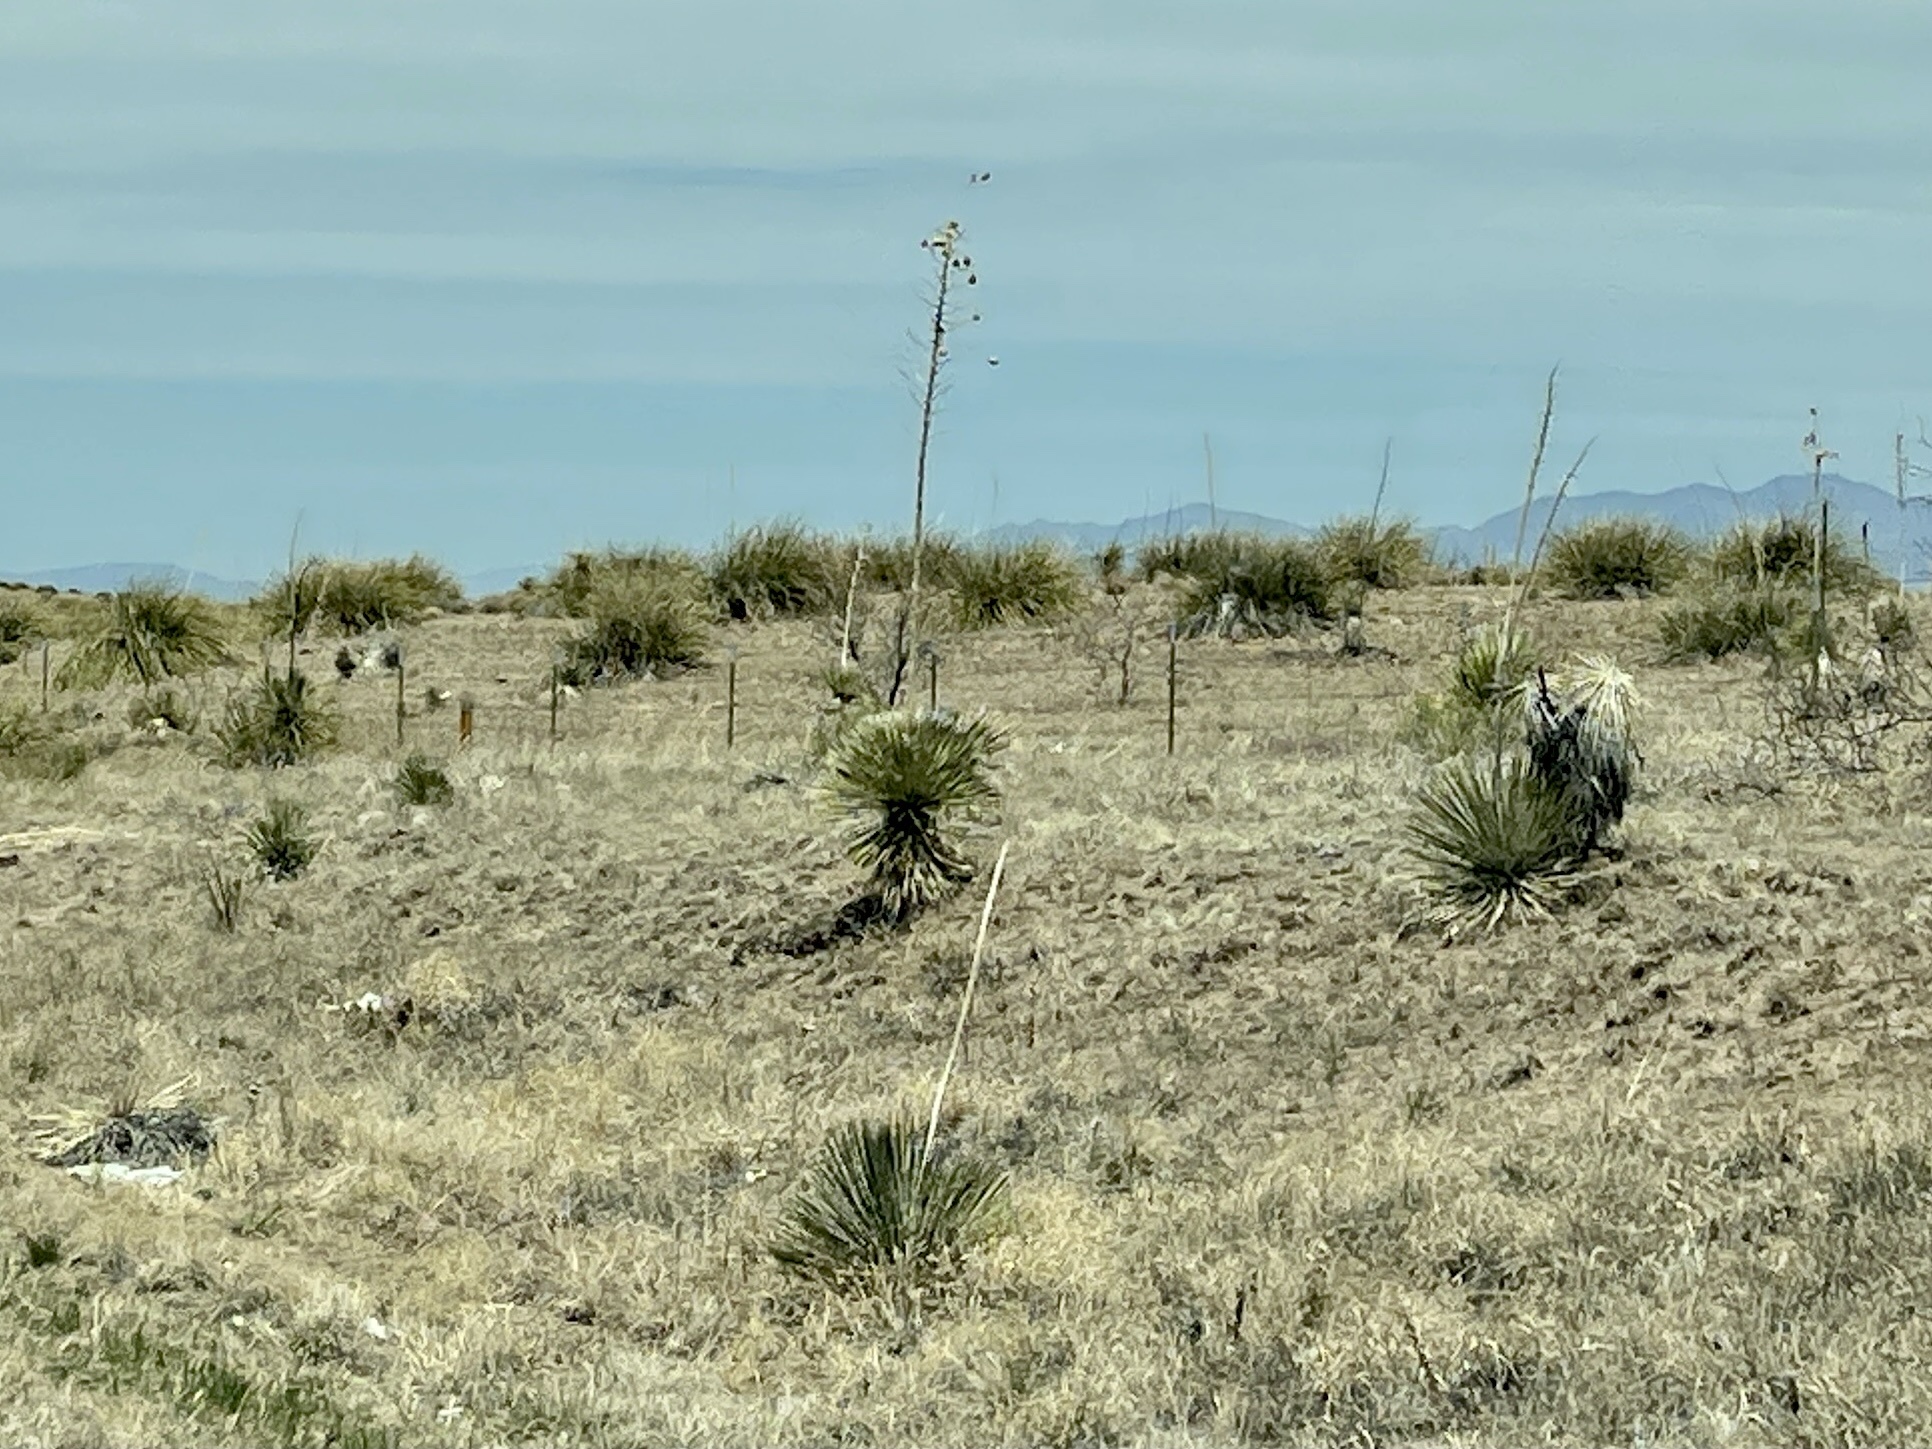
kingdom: Plantae
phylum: Tracheophyta
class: Liliopsida
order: Asparagales
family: Asparagaceae
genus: Yucca
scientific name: Yucca elata
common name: Palmella
